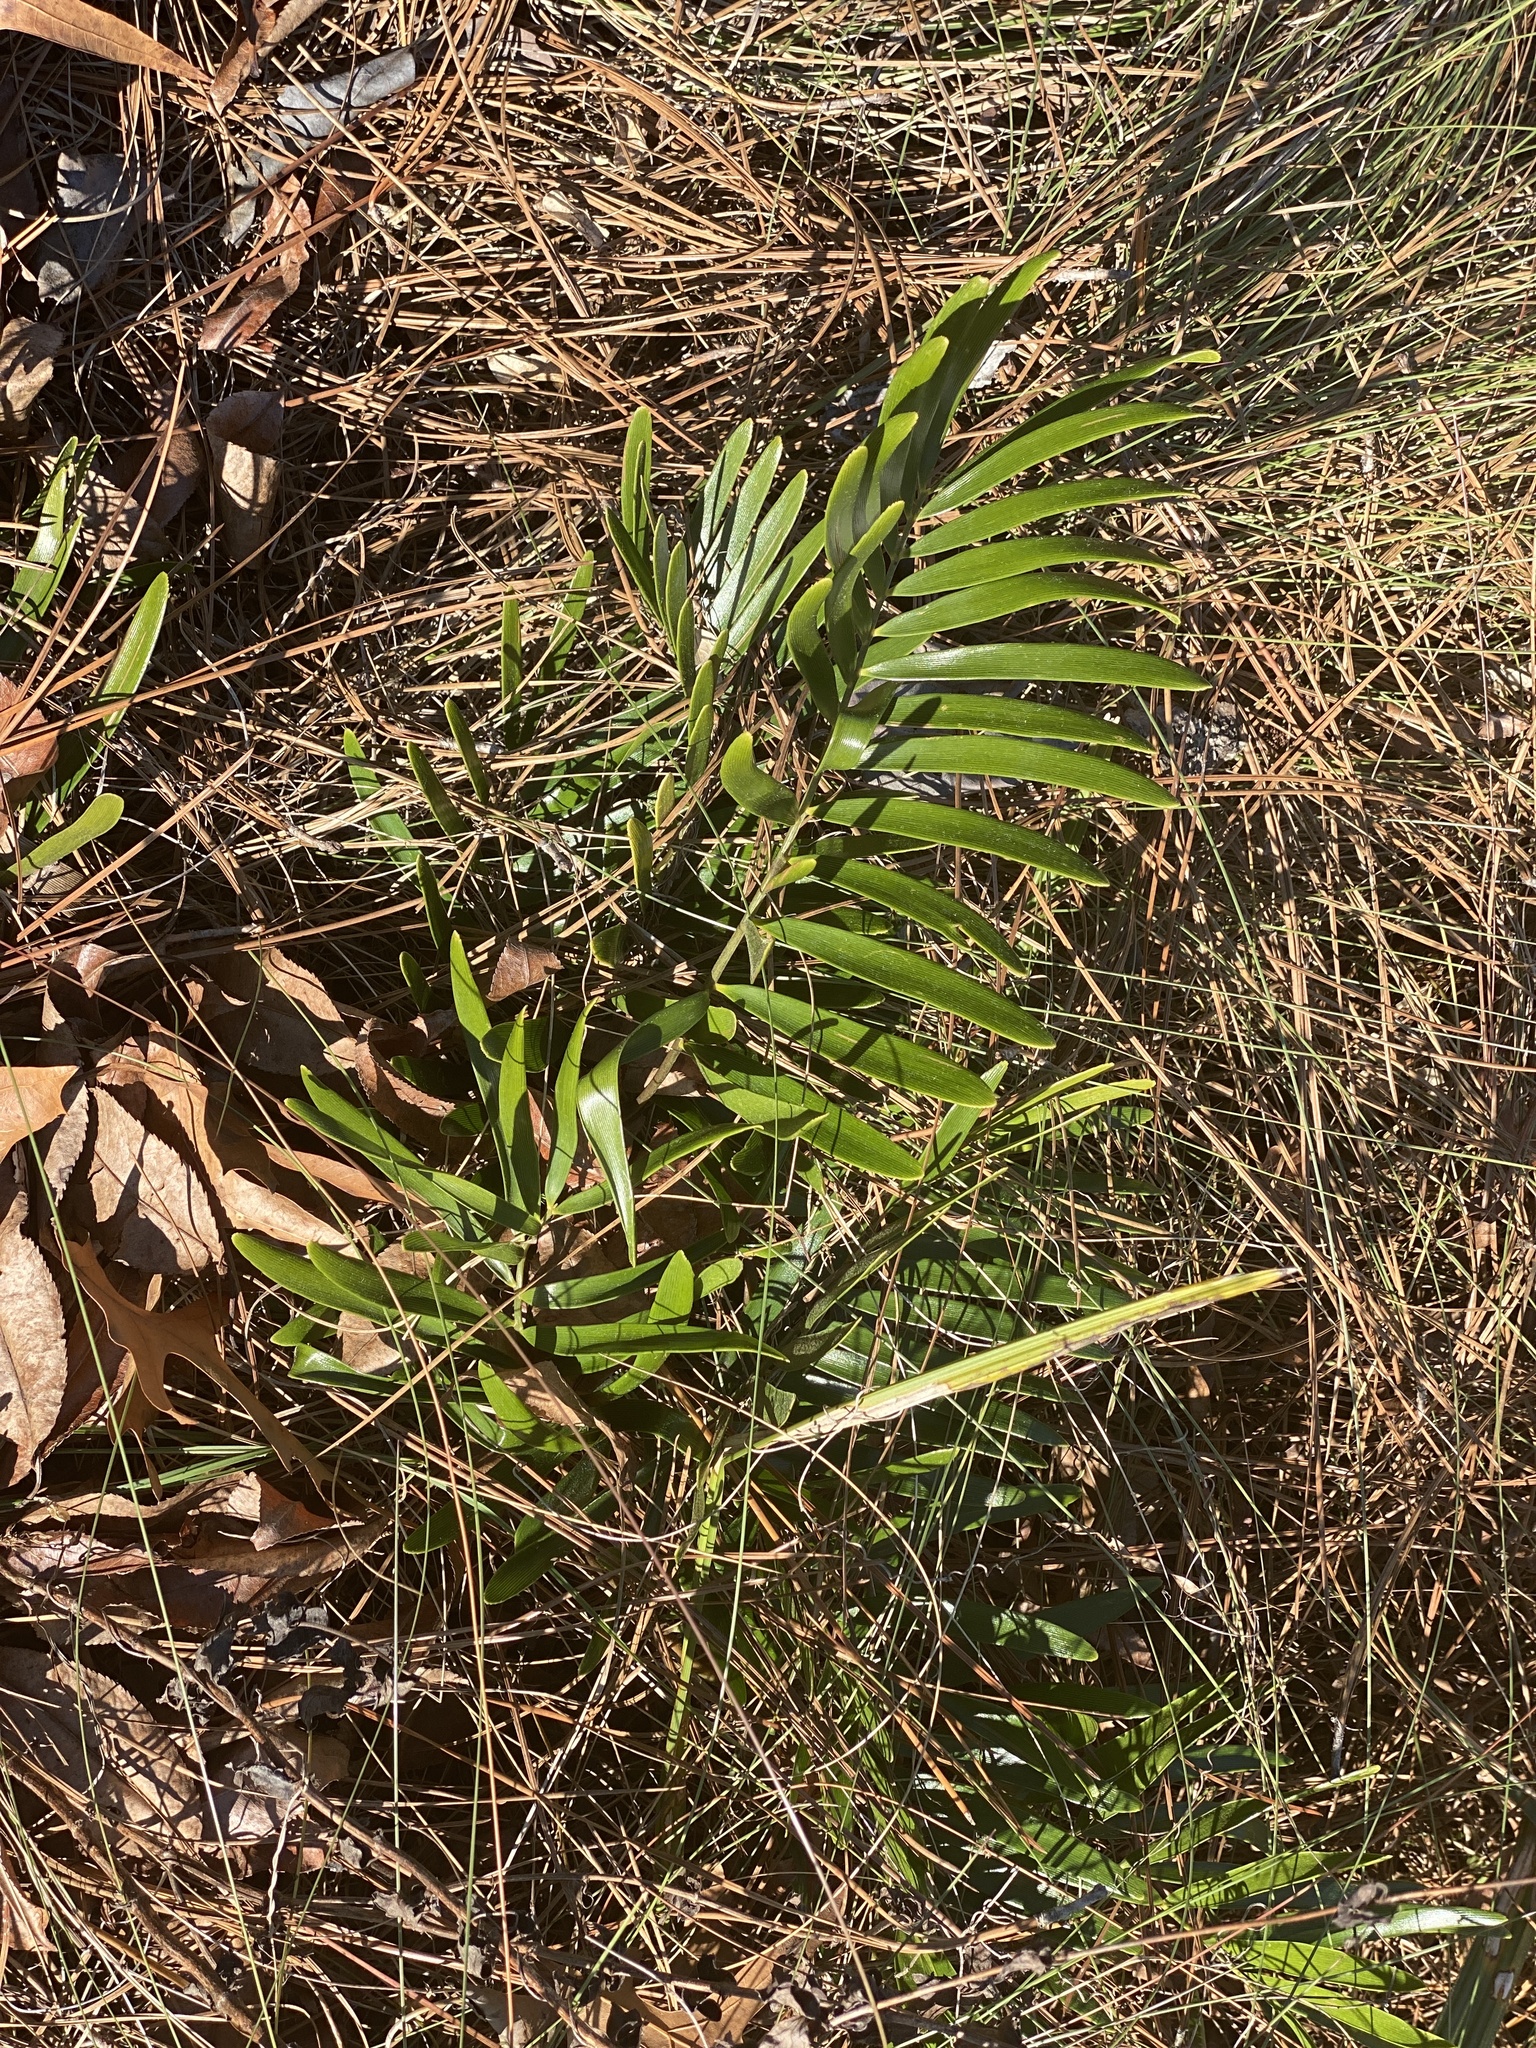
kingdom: Plantae
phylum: Tracheophyta
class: Cycadopsida
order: Cycadales
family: Zamiaceae
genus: Zamia
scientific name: Zamia integrifolia
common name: Florida arrowroot
